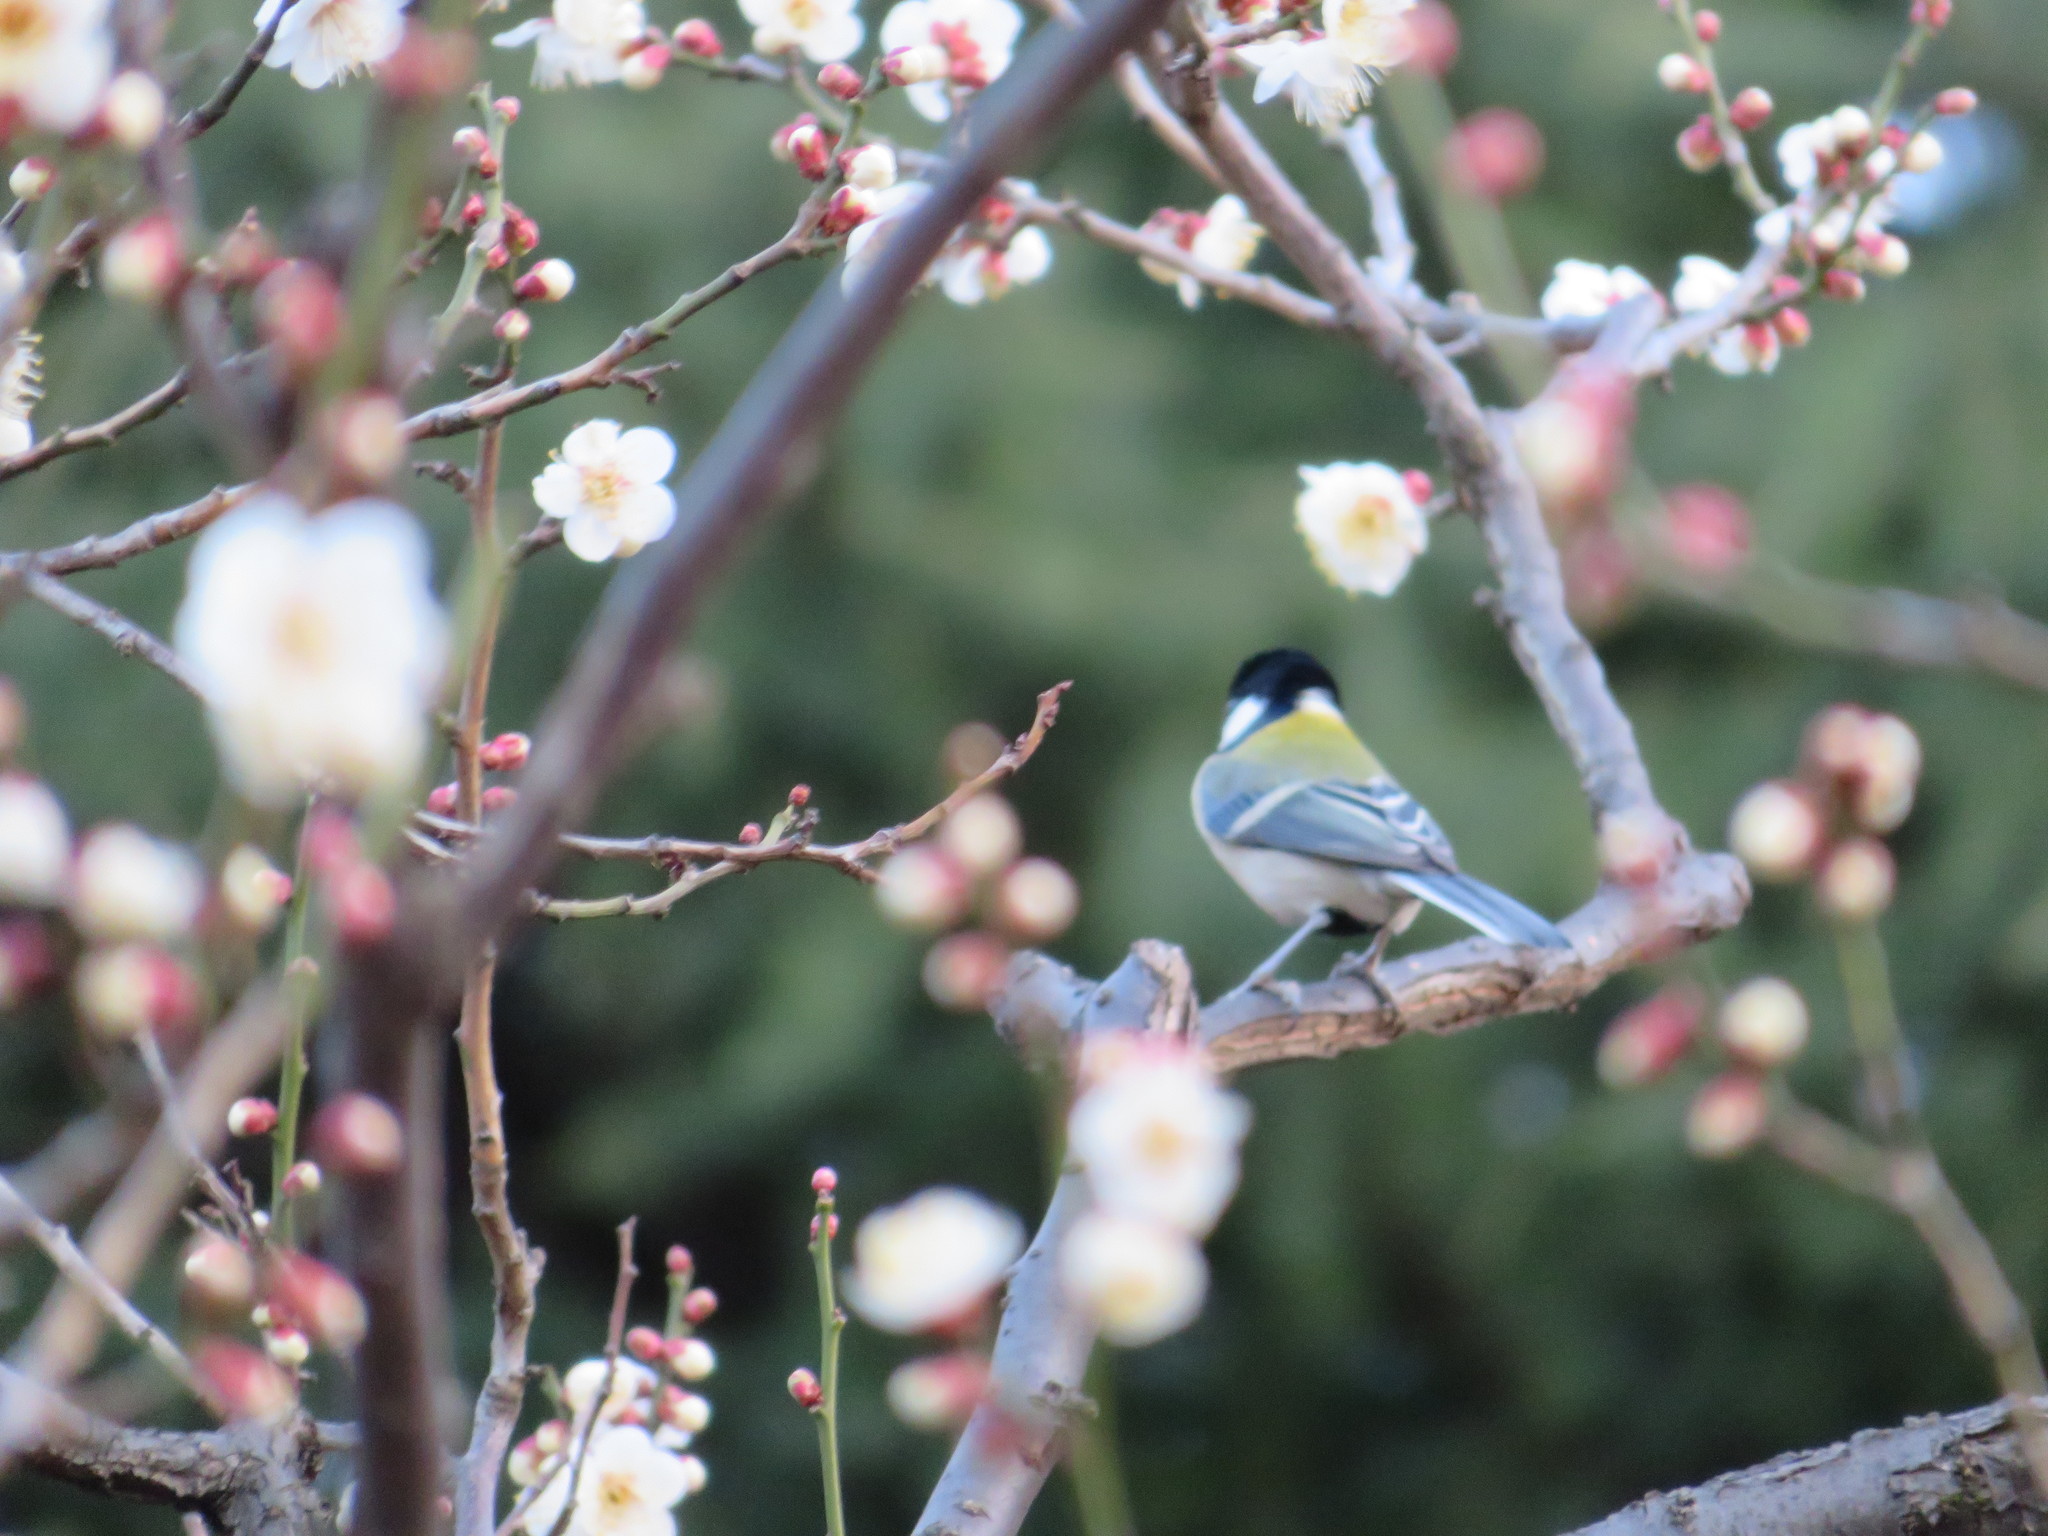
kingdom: Animalia
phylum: Chordata
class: Aves
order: Passeriformes
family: Paridae
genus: Parus
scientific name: Parus minor
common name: Japanese tit
